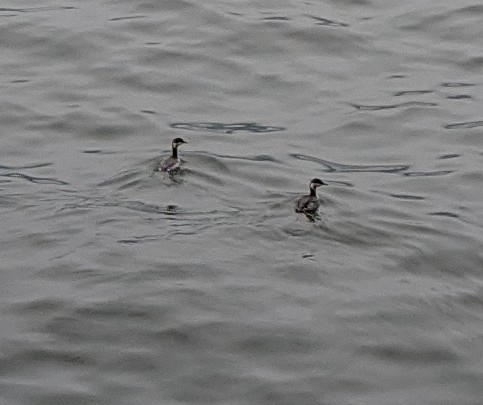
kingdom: Animalia
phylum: Chordata
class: Aves
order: Podicipediformes
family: Podicipedidae
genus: Podiceps
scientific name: Podiceps auritus
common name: Horned grebe
